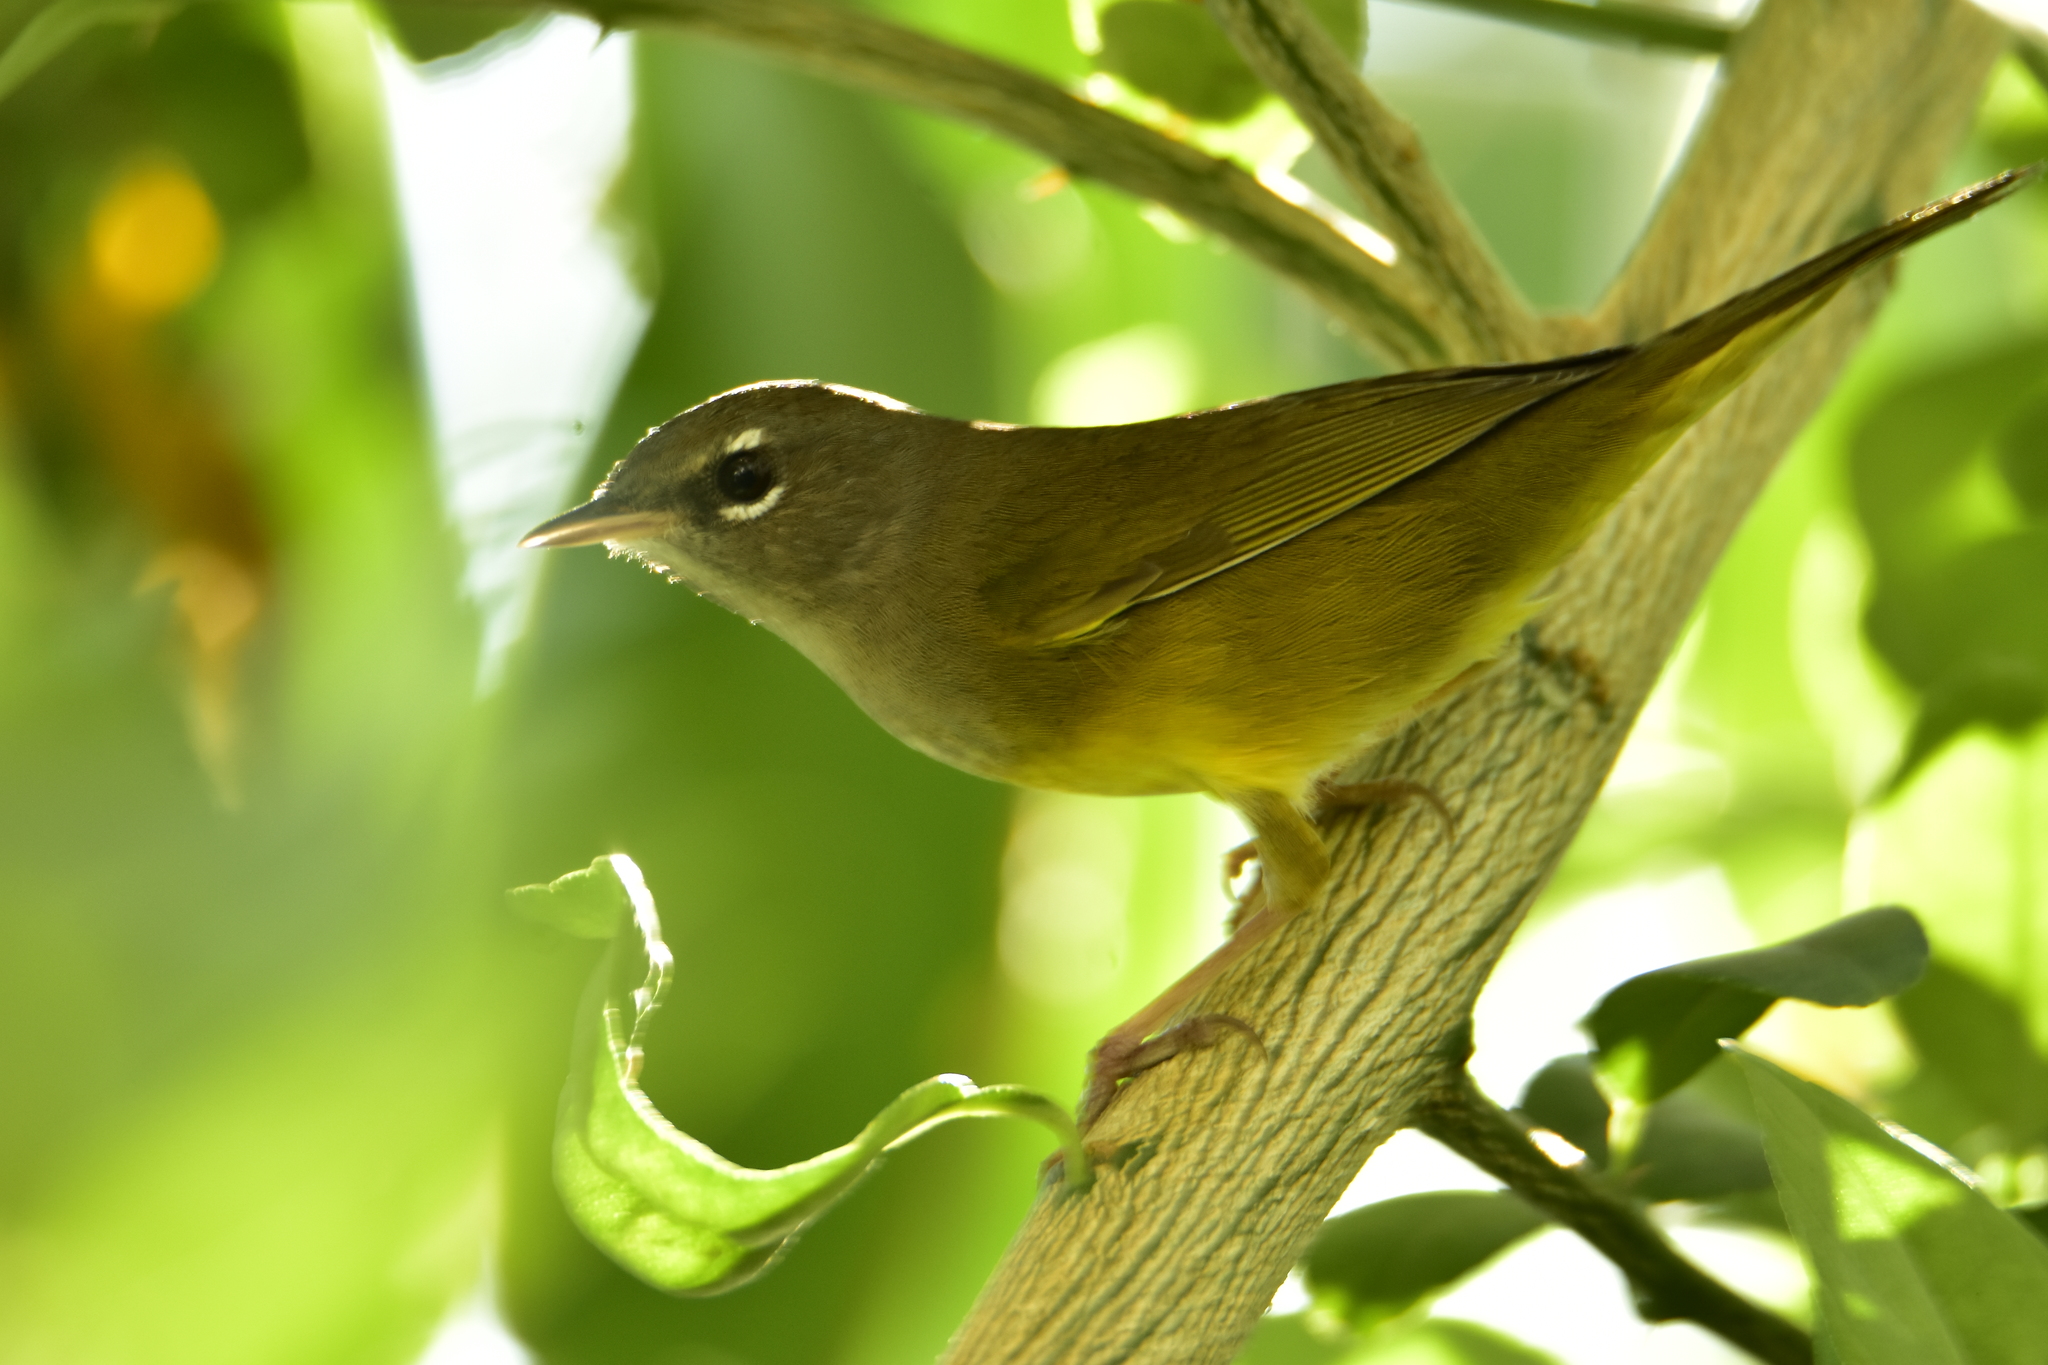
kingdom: Animalia
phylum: Chordata
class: Aves
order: Passeriformes
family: Parulidae
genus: Geothlypis
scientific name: Geothlypis tolmiei
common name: Macgillivray's warbler
